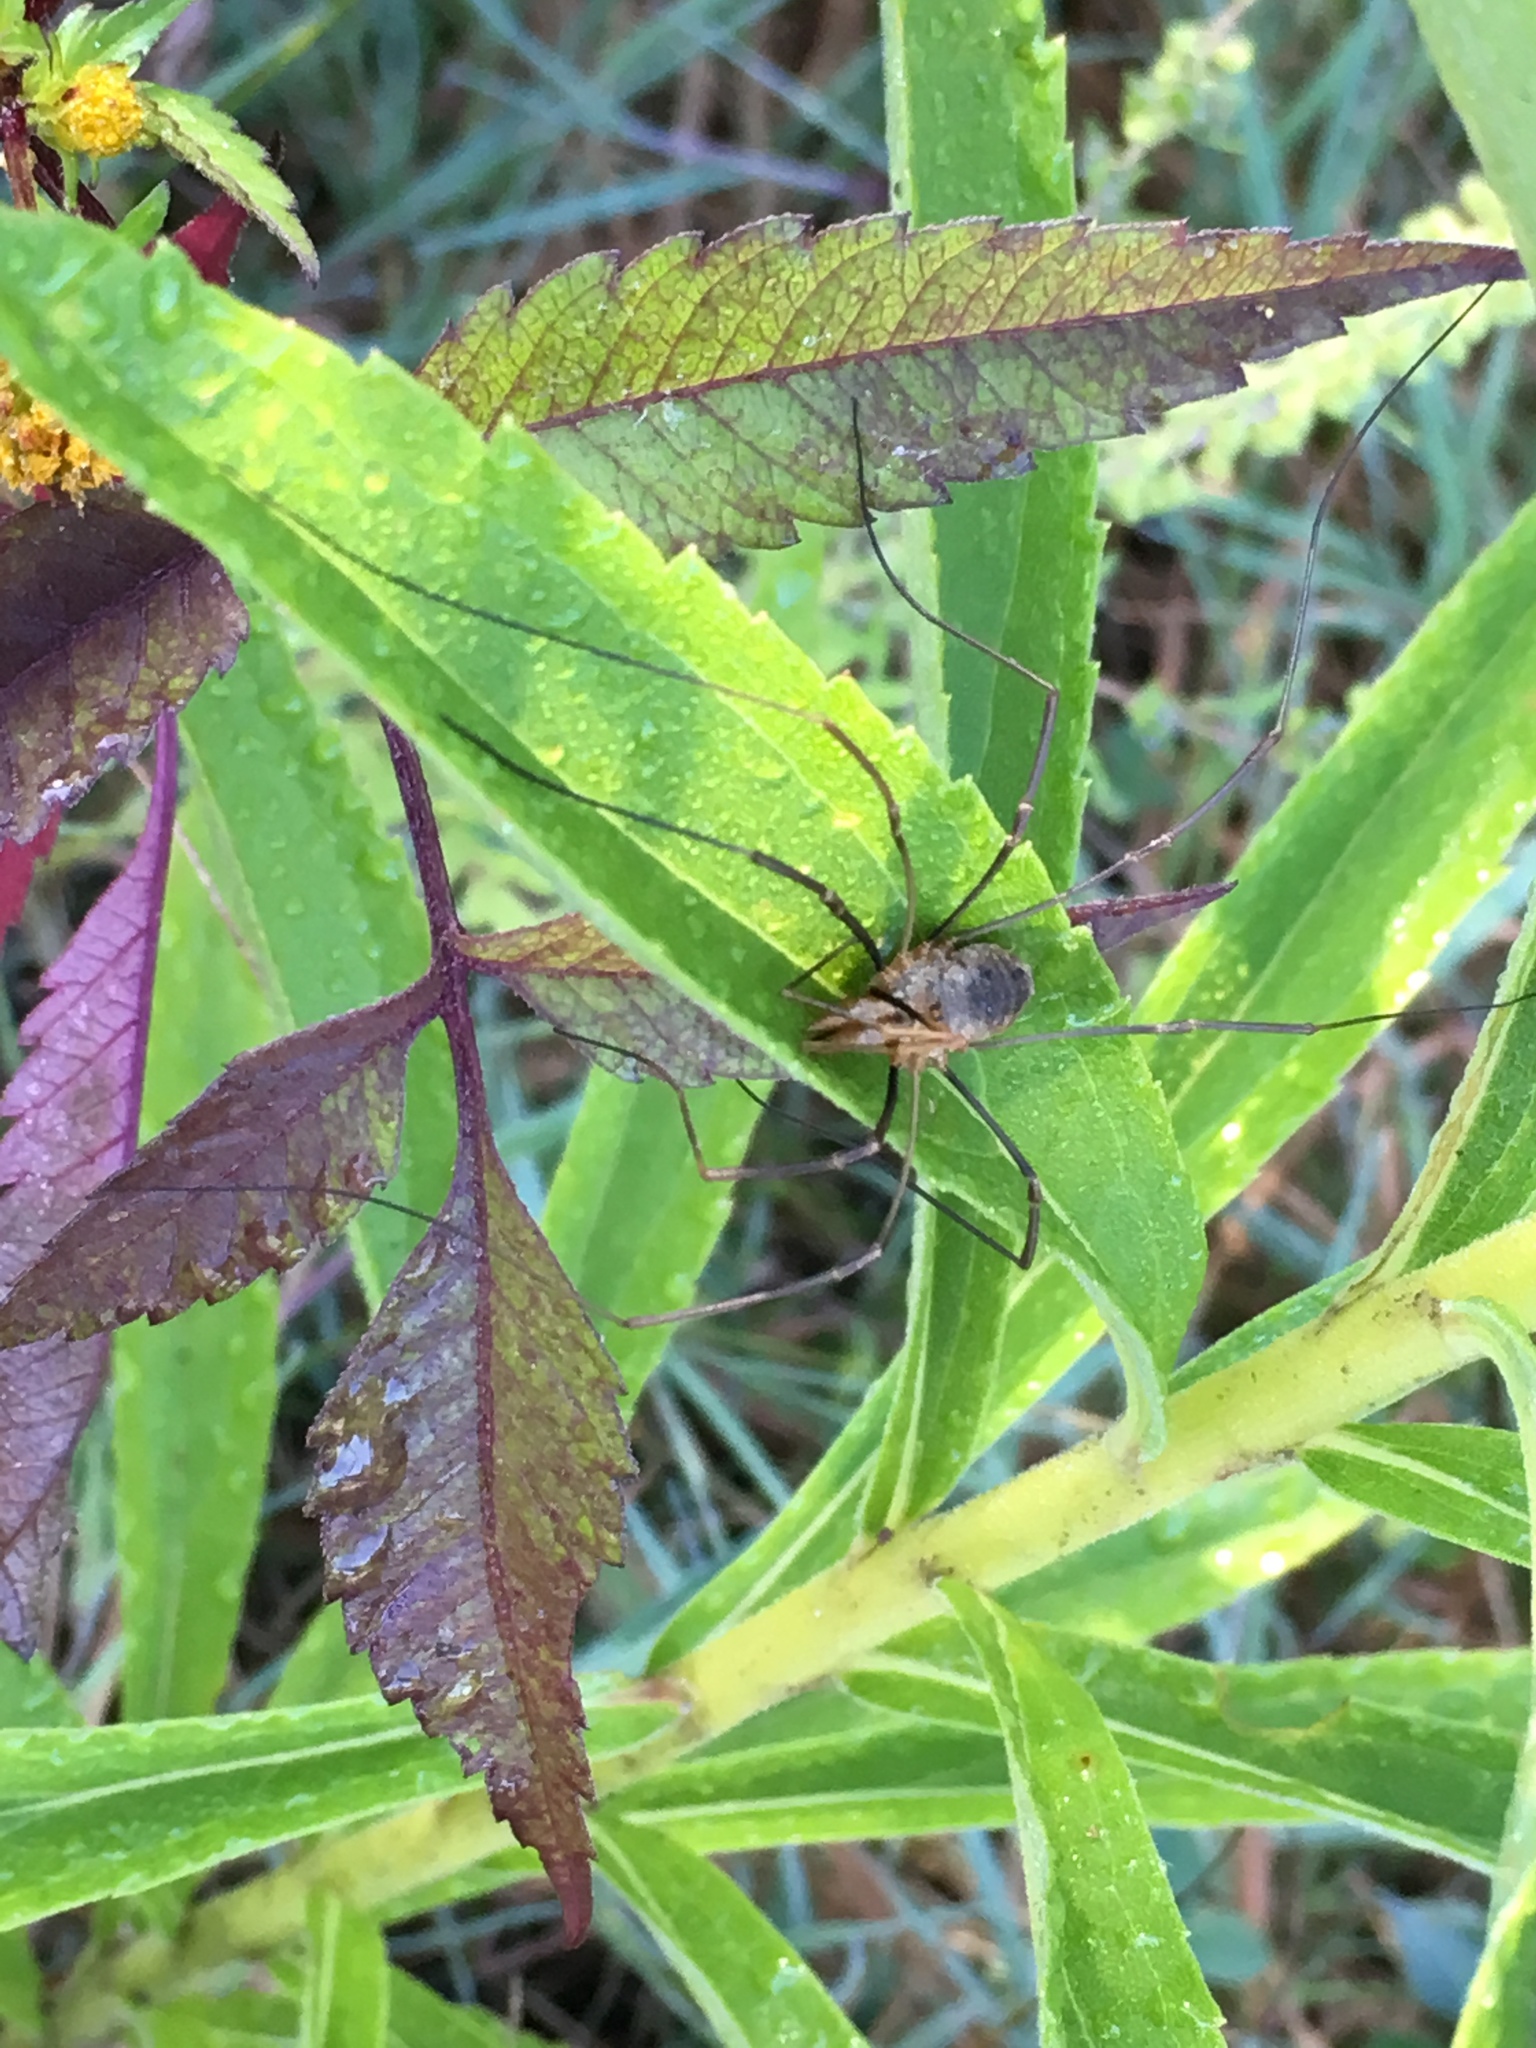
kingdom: Animalia
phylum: Arthropoda
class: Arachnida
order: Opiliones
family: Phalangiidae
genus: Phalangium
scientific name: Phalangium opilio
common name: Daddy longleg
